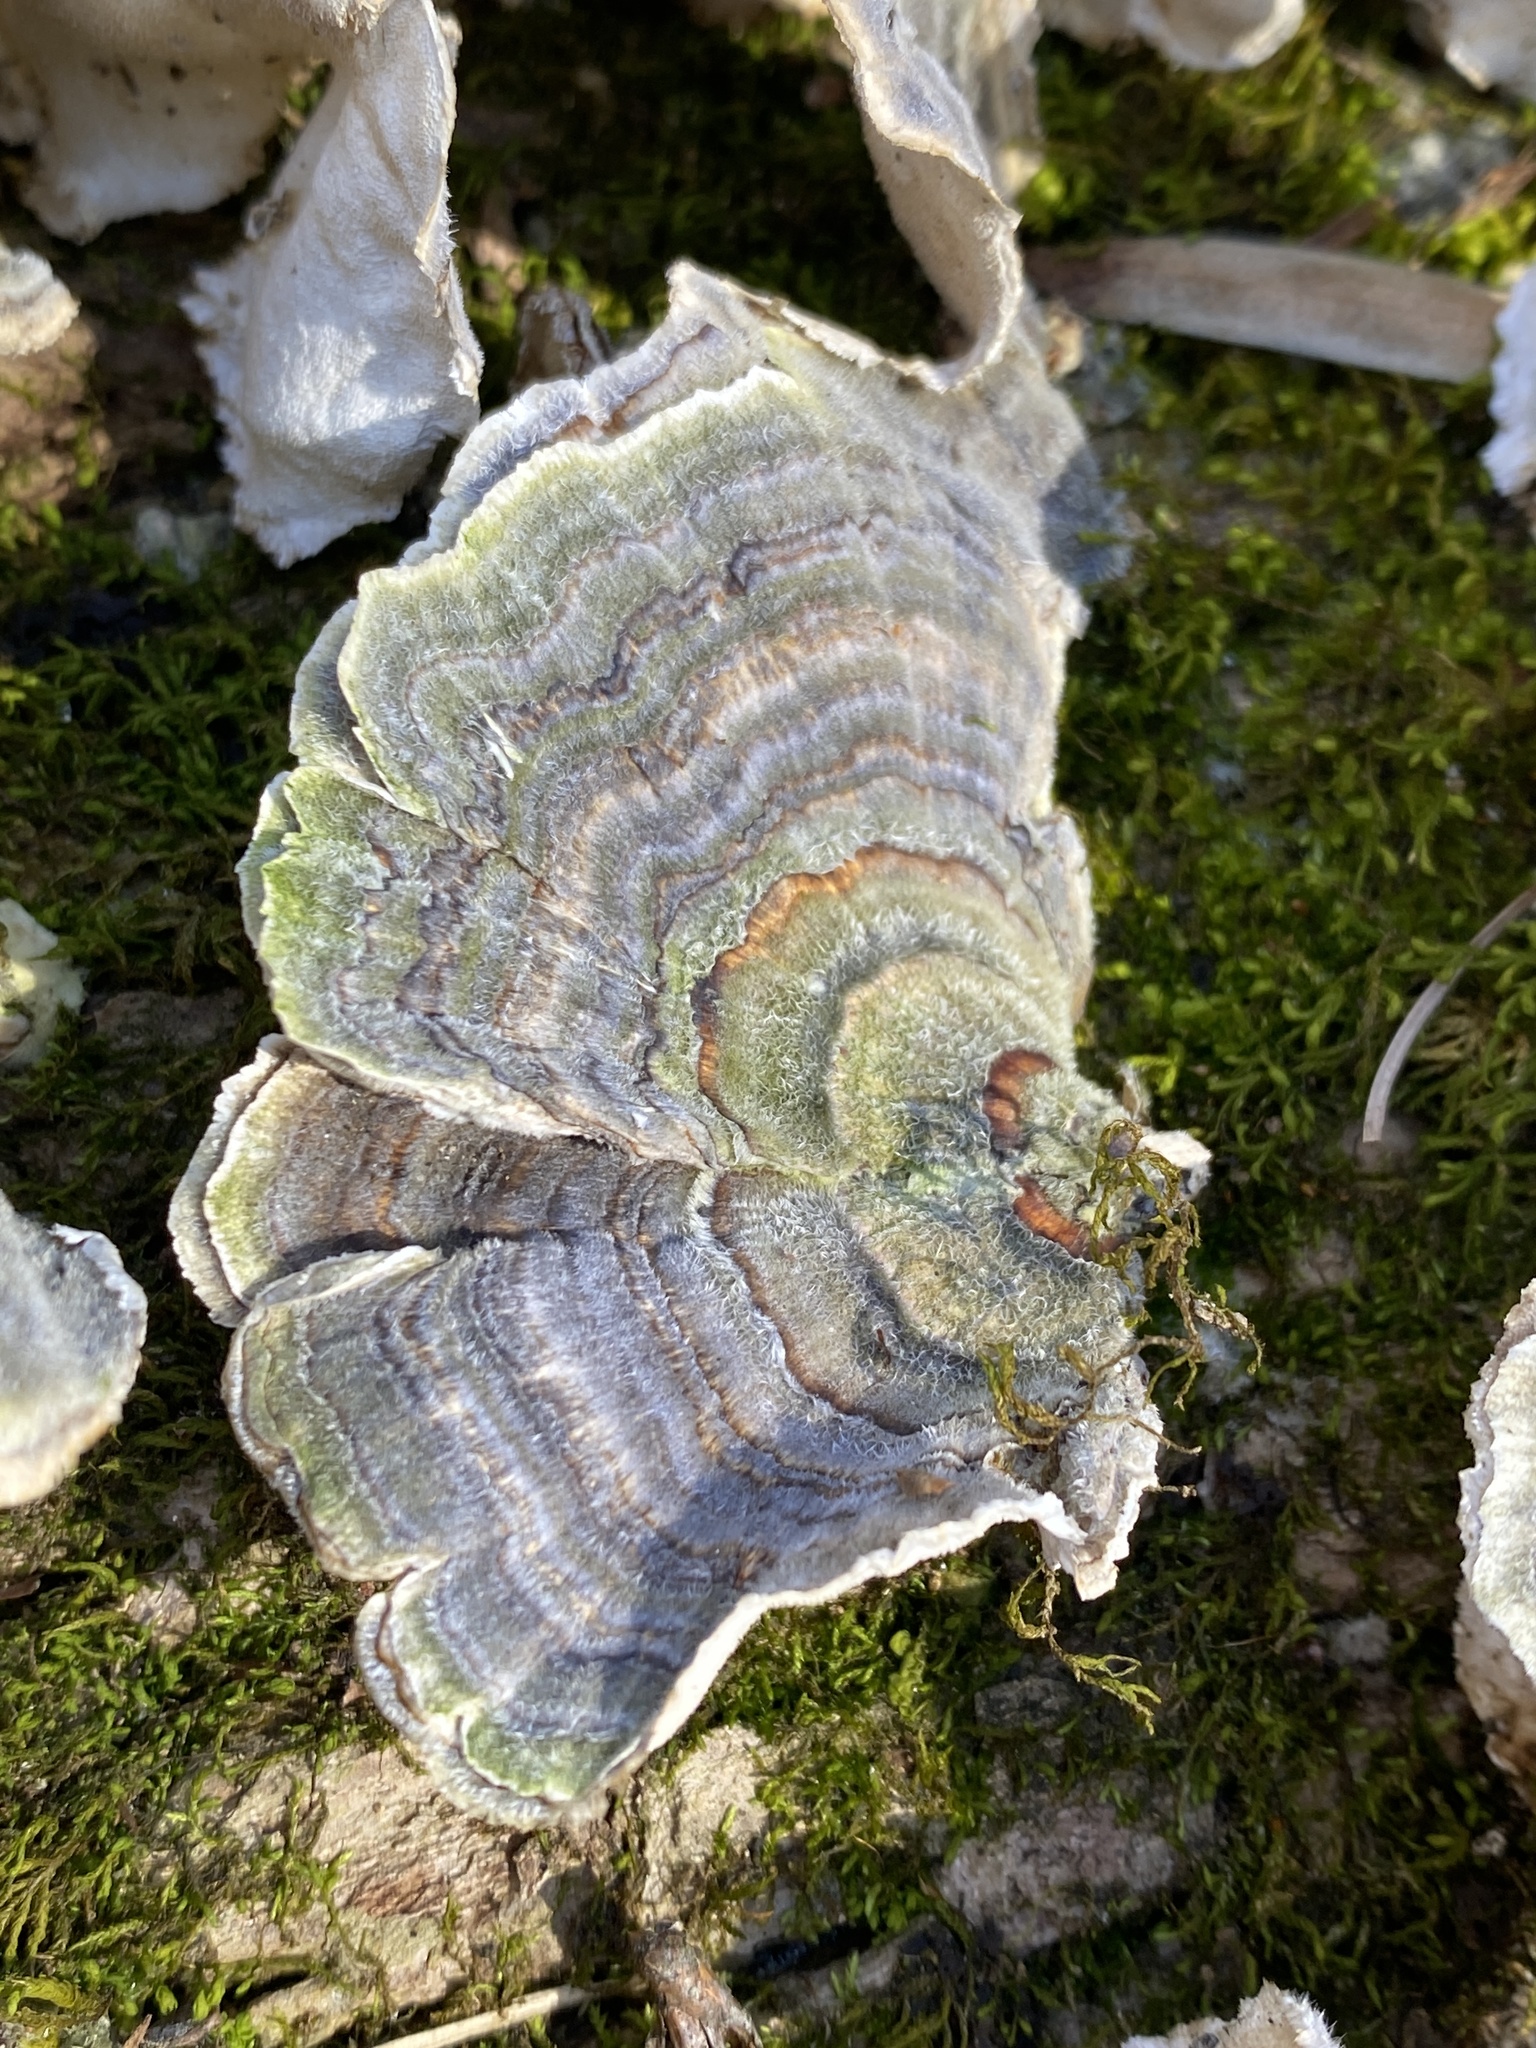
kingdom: Fungi
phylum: Basidiomycota
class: Agaricomycetes
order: Polyporales
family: Polyporaceae
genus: Trametes
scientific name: Trametes versicolor
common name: Turkeytail
